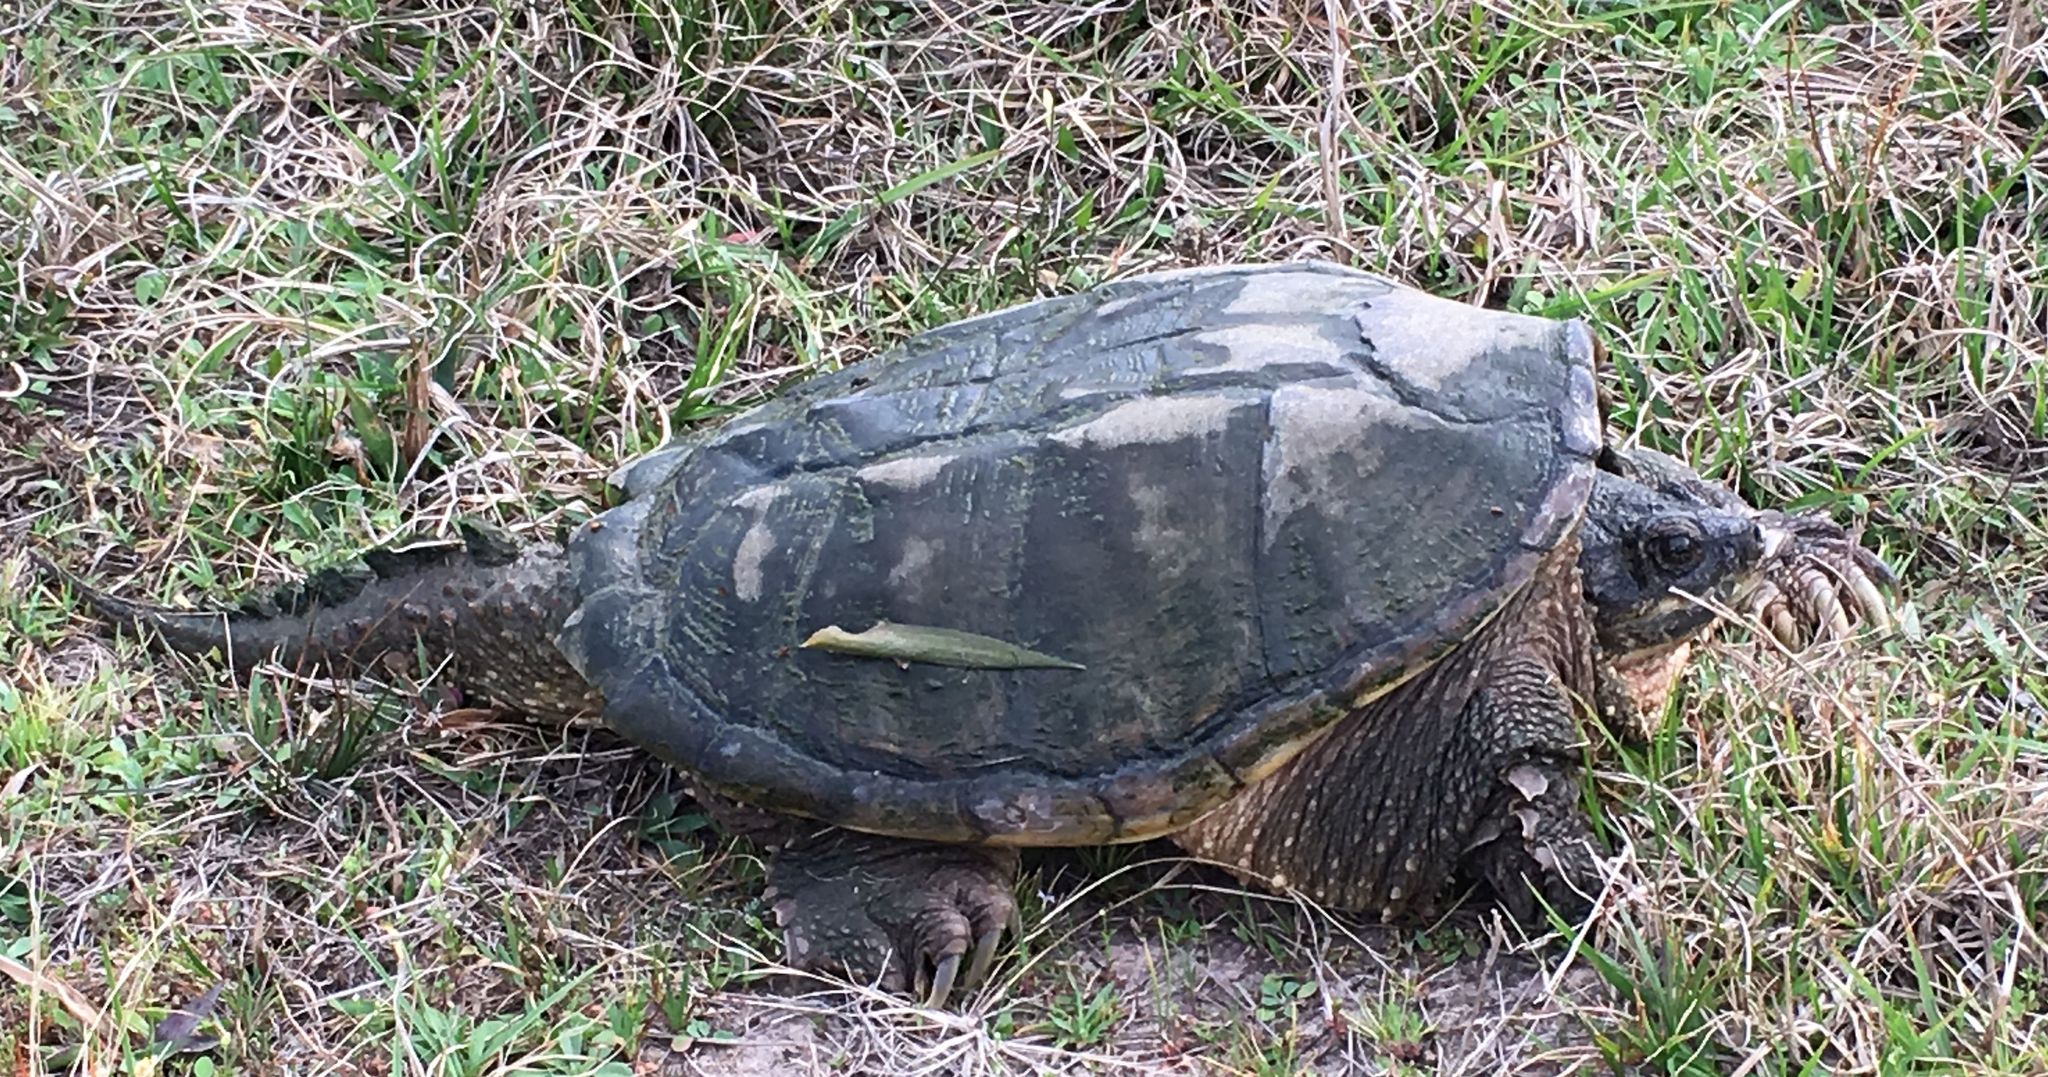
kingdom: Animalia
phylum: Chordata
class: Testudines
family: Chelydridae
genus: Chelydra
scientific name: Chelydra serpentina
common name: Common snapping turtle
